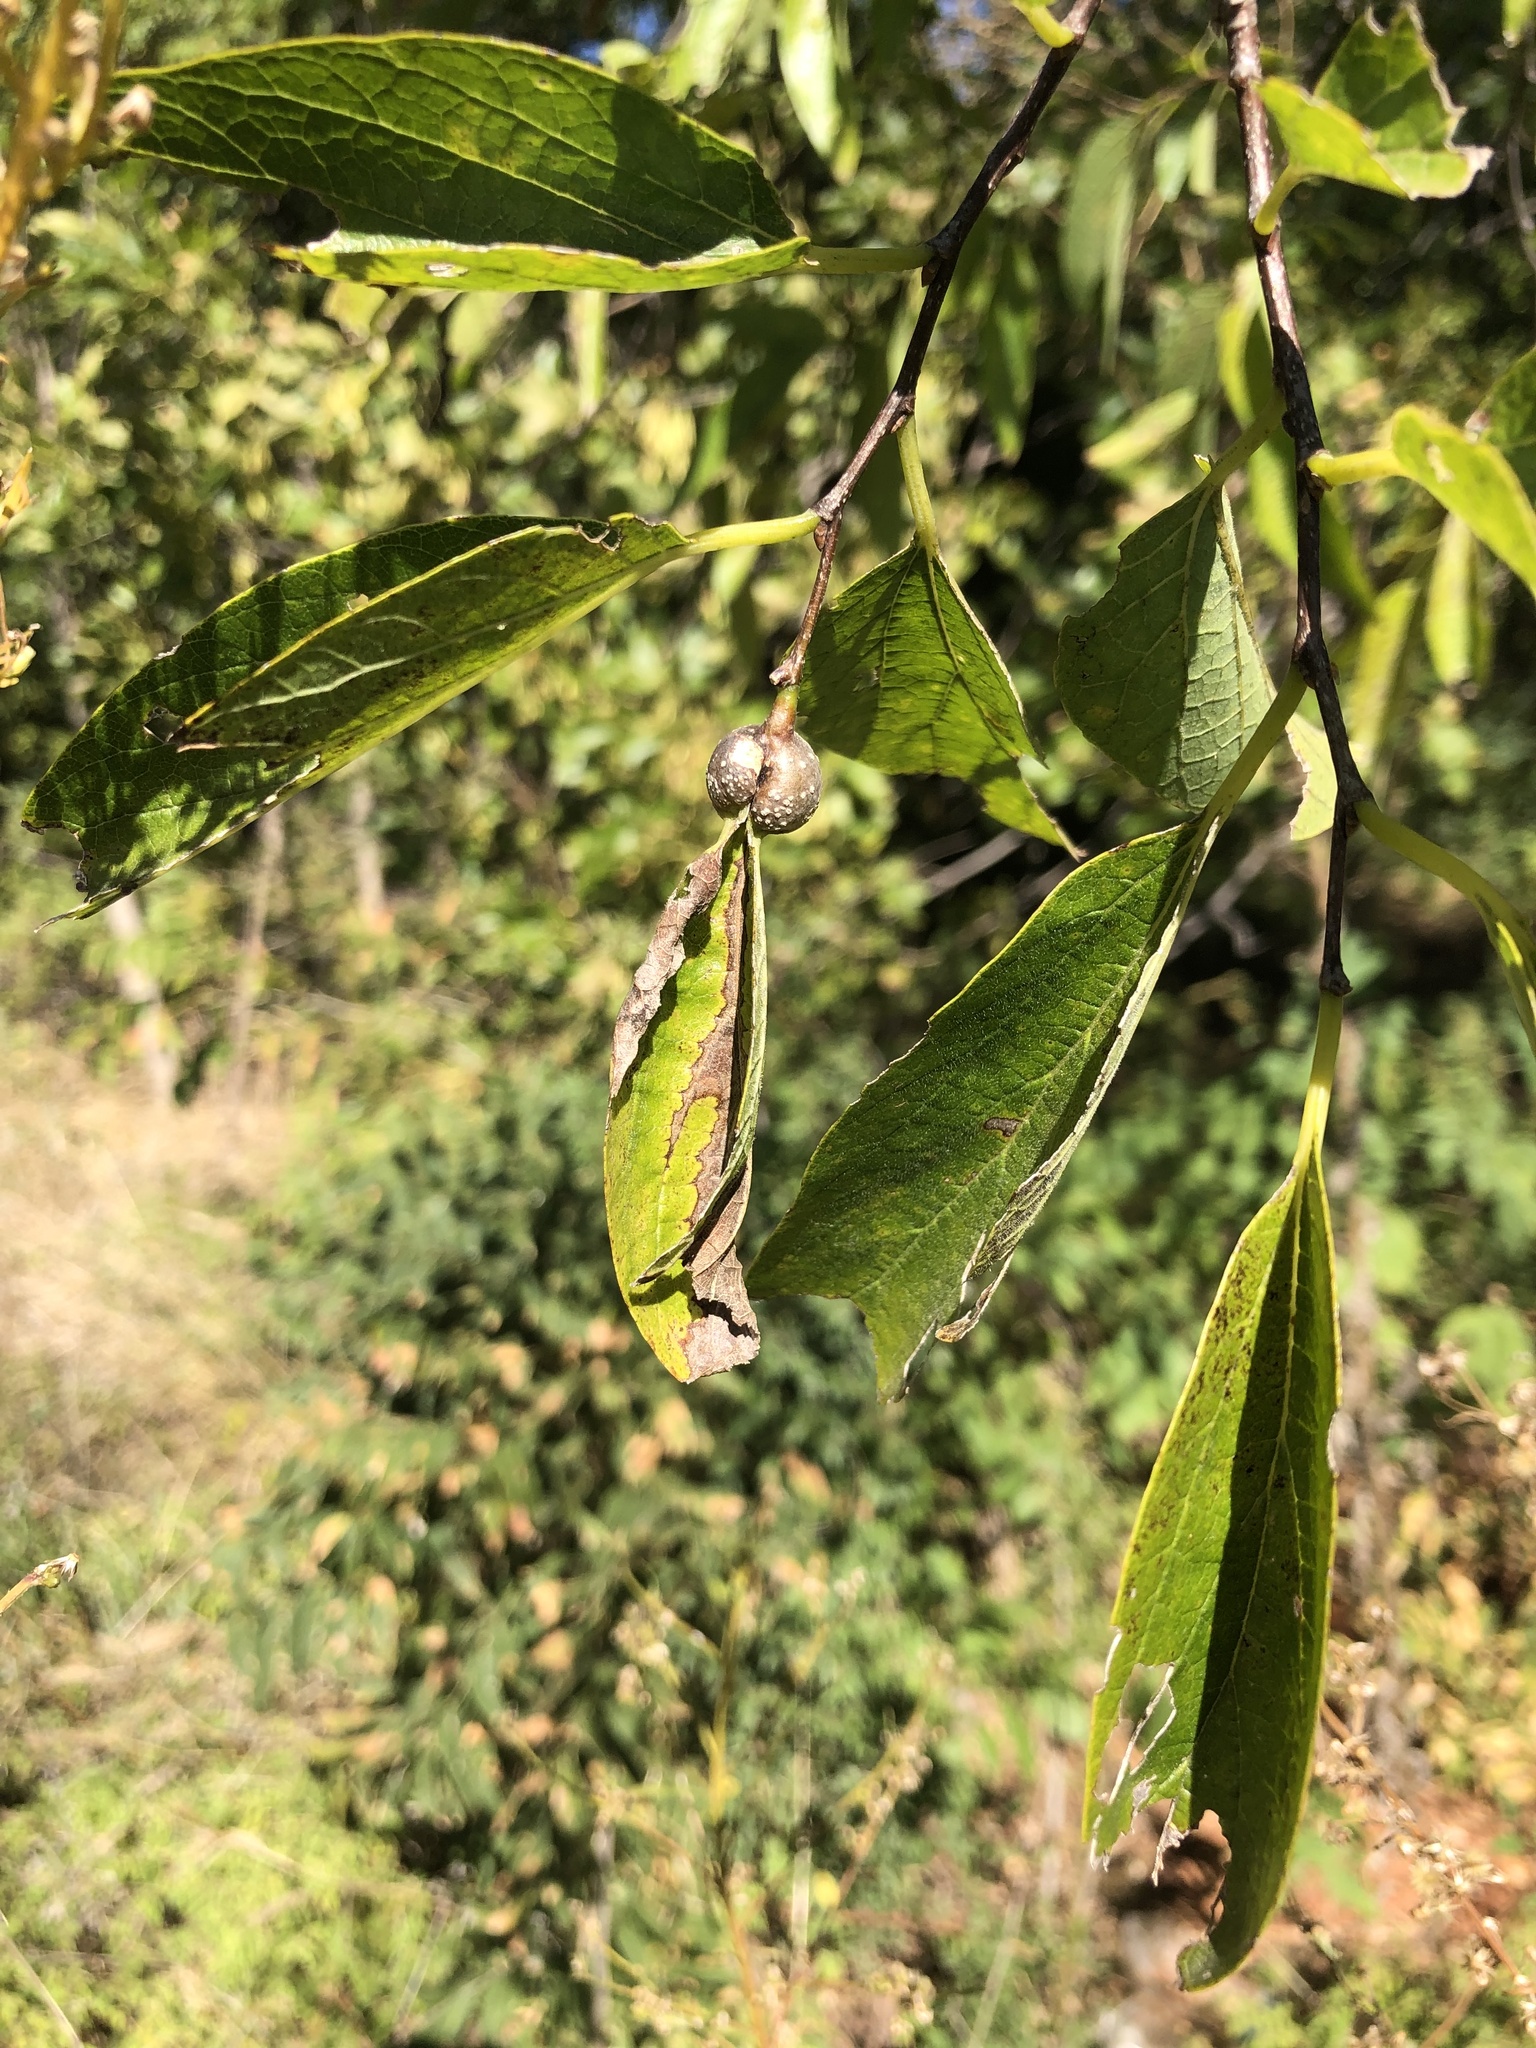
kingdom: Plantae
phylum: Tracheophyta
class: Magnoliopsida
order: Rosales
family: Cannabaceae
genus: Celtis
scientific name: Celtis laevigata
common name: Sugarberry
